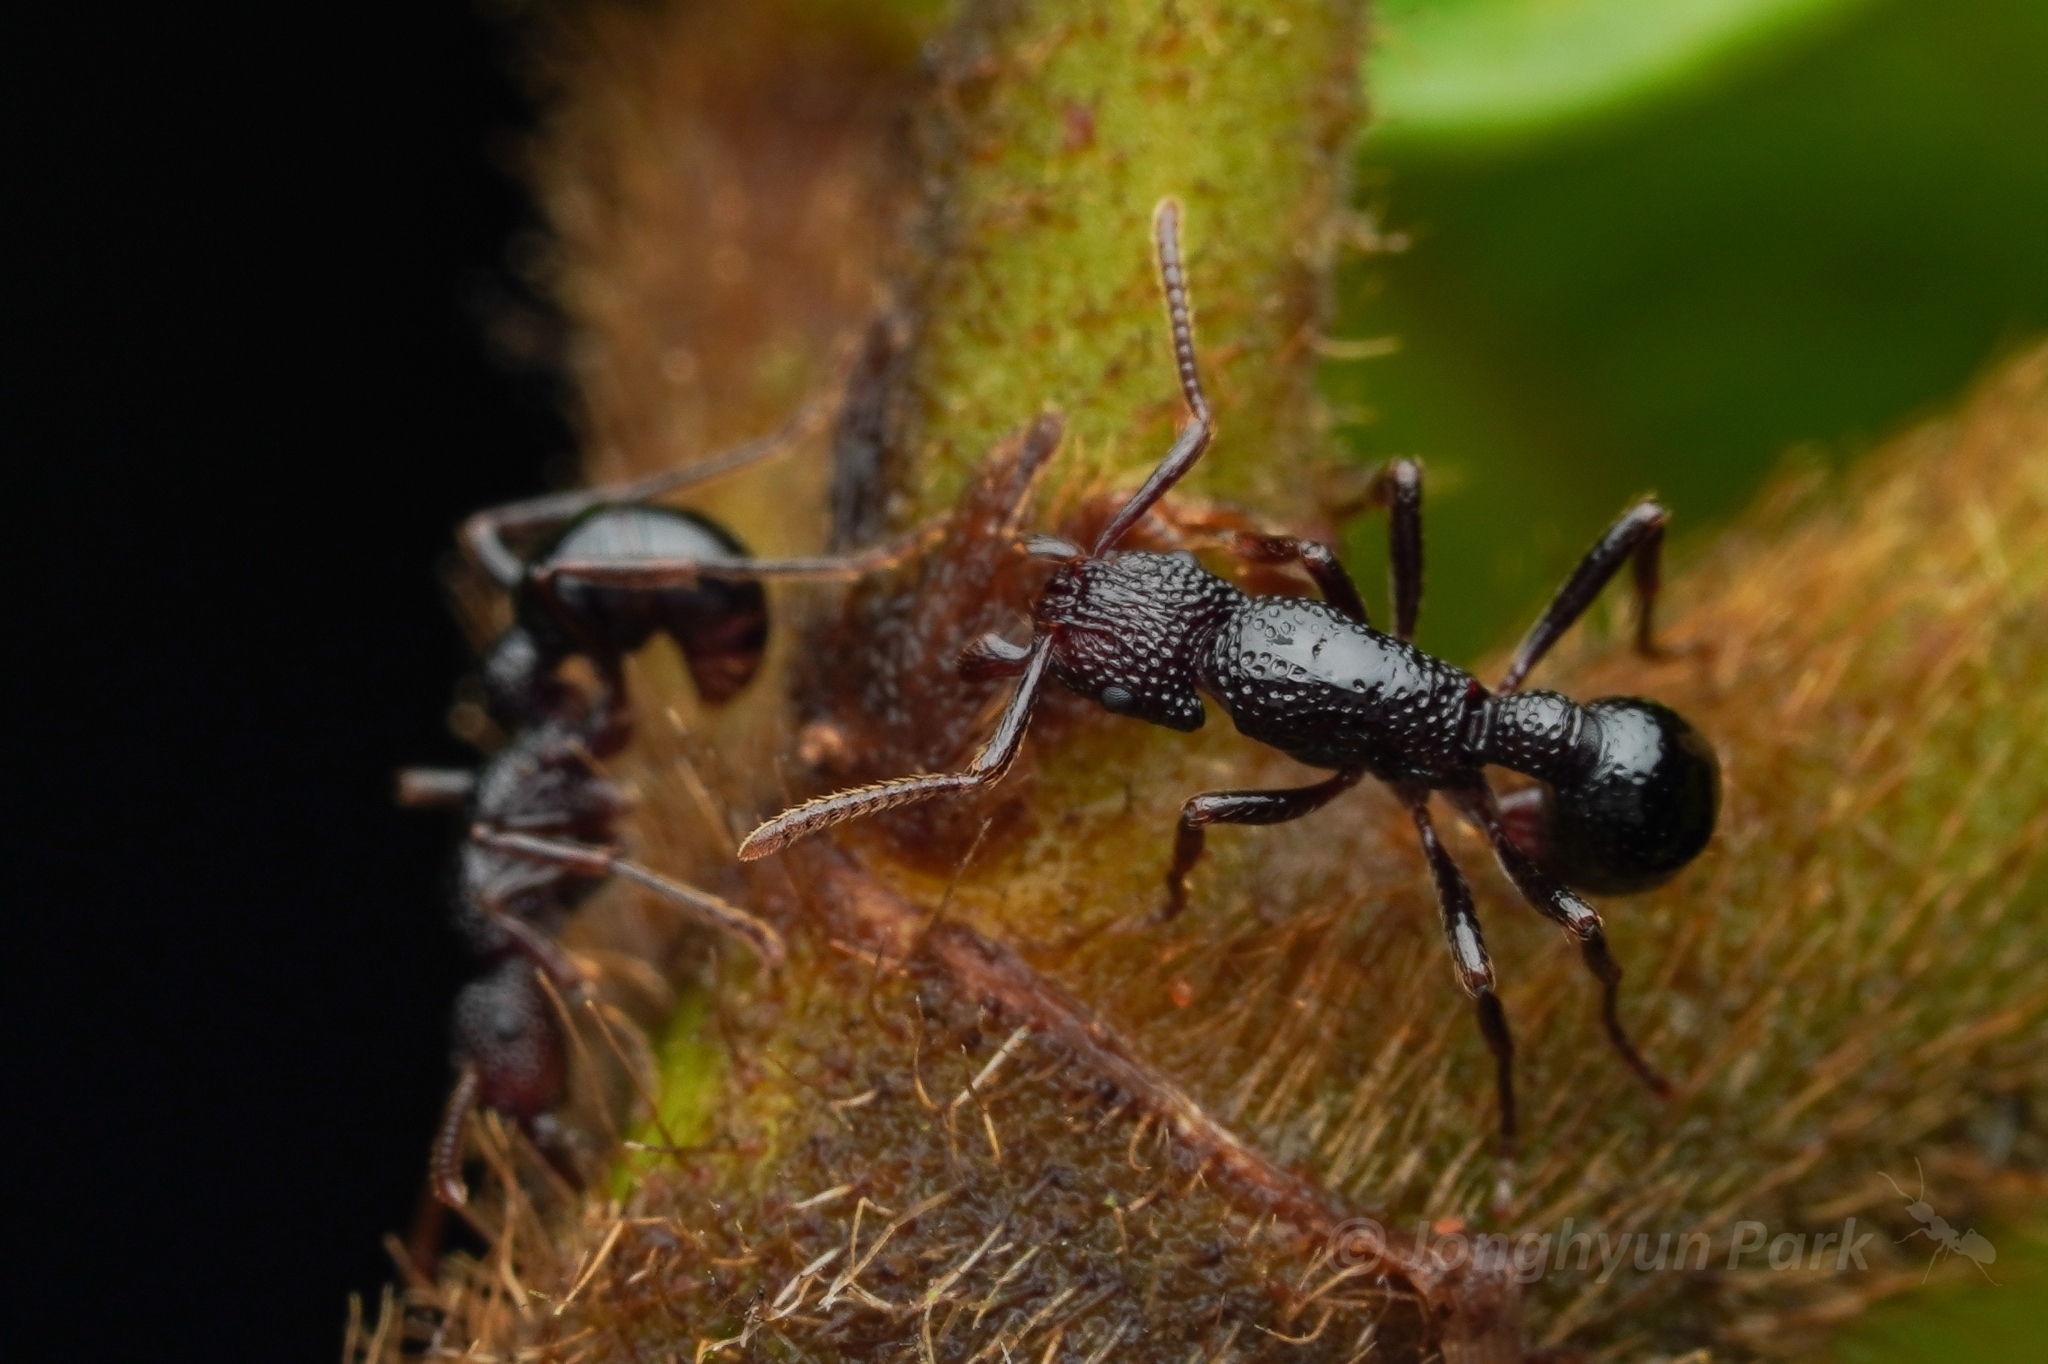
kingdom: Animalia
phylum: Arthropoda
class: Insecta
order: Hymenoptera
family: Formicidae
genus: Stictoponera
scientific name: Stictoponera
